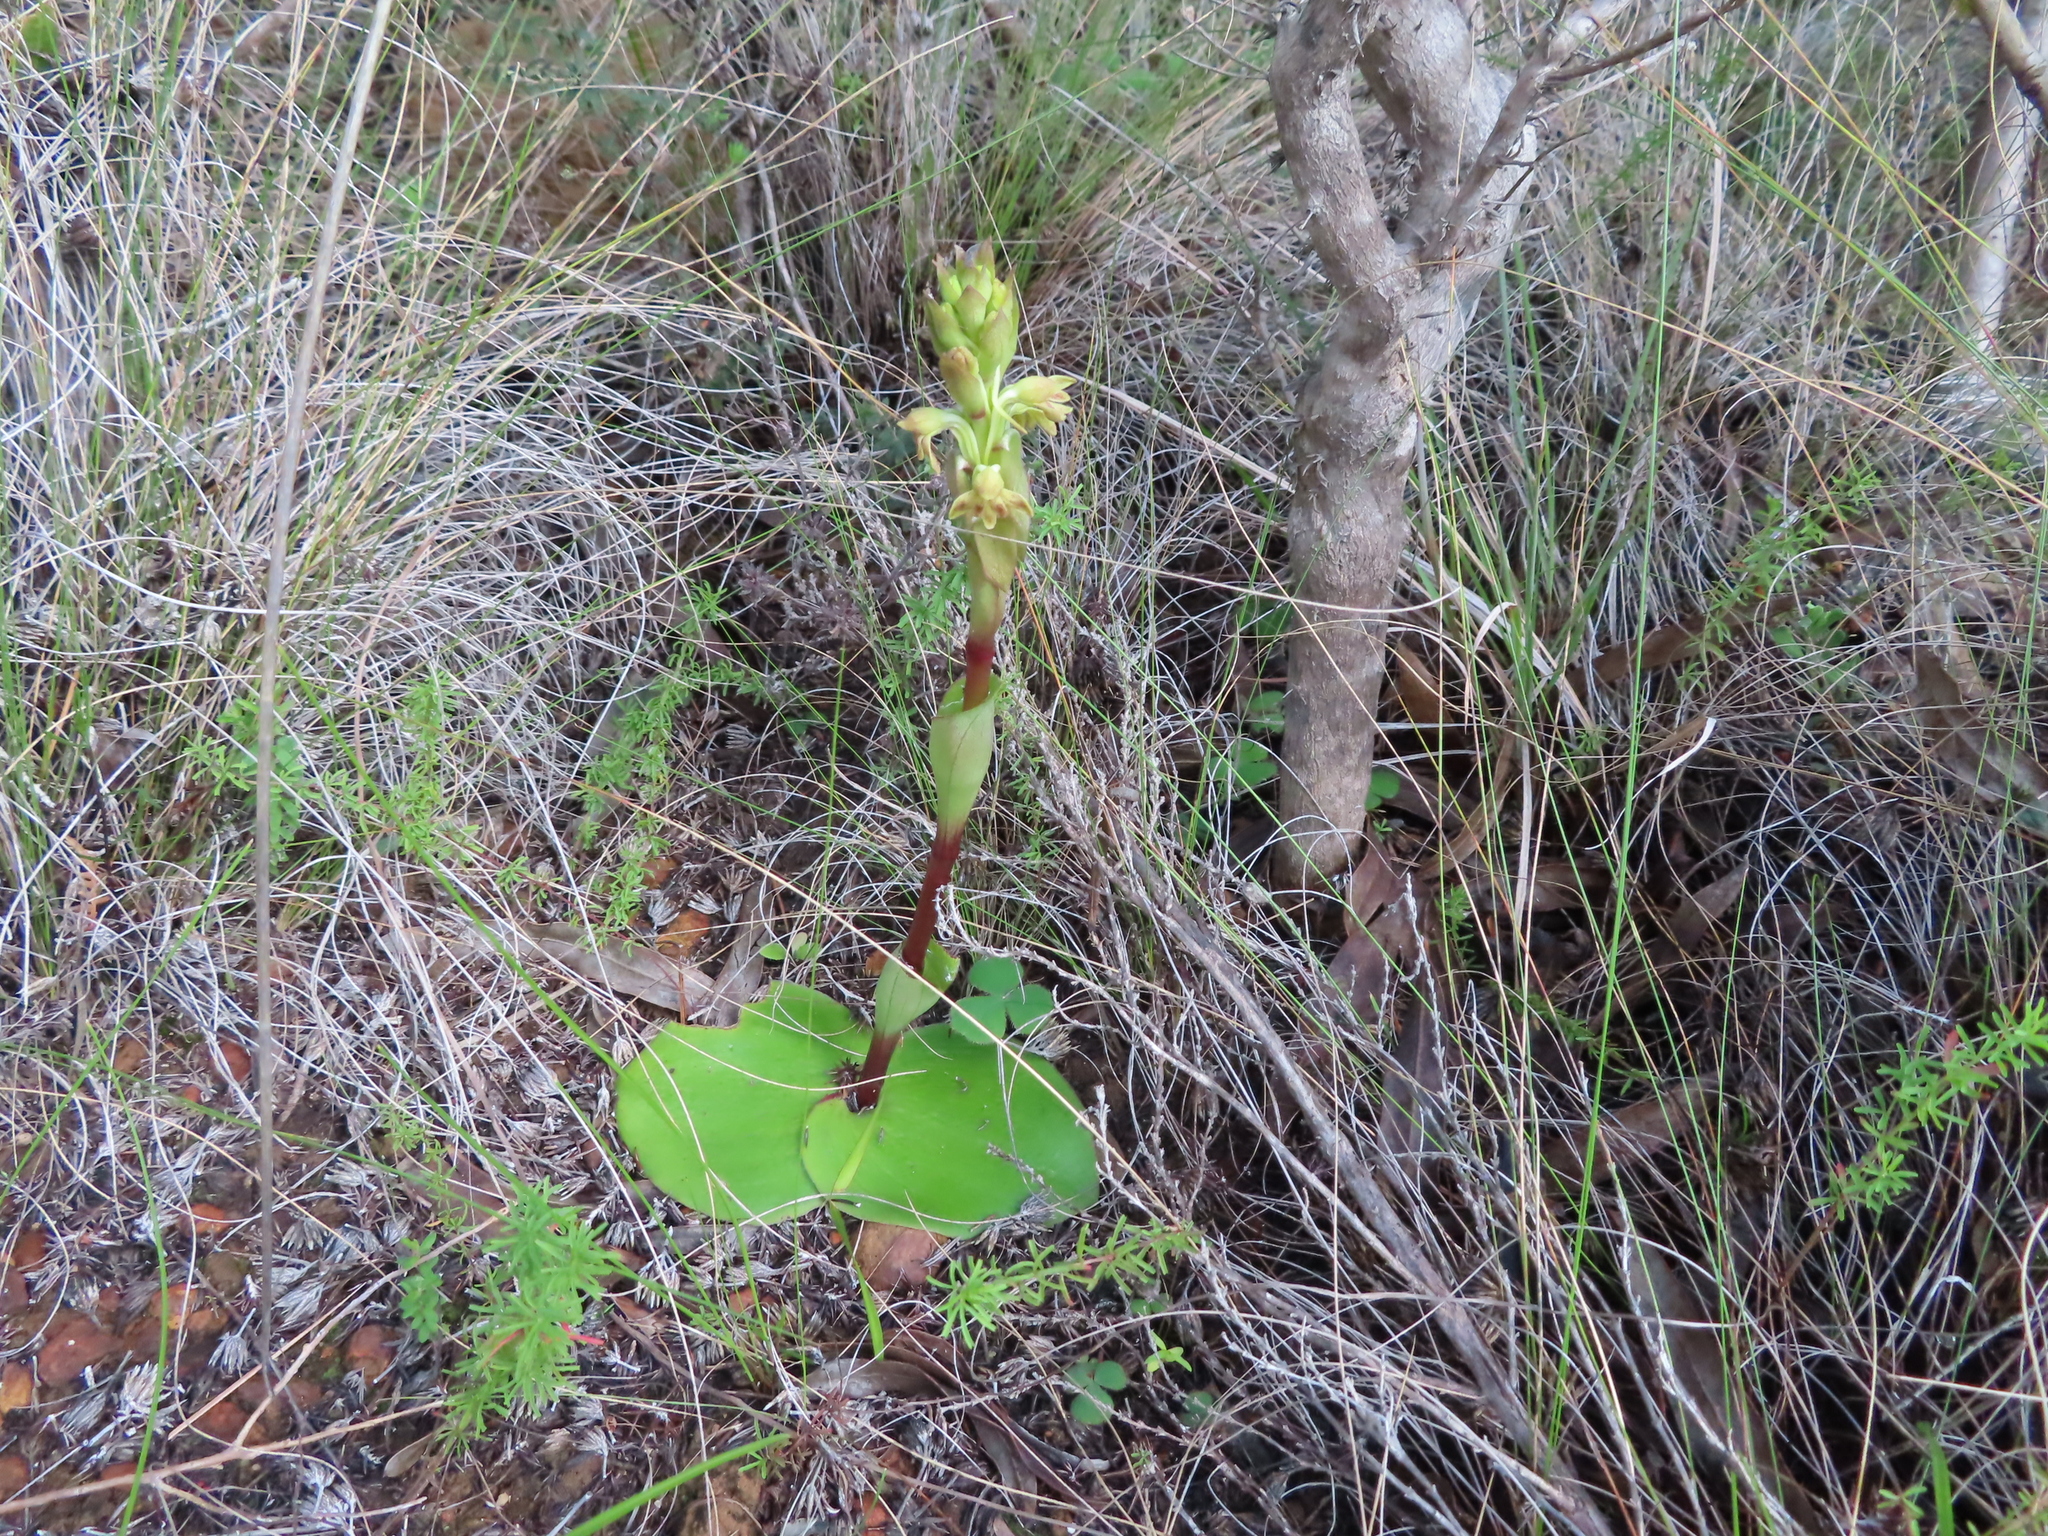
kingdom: Plantae
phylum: Tracheophyta
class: Liliopsida
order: Asparagales
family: Orchidaceae
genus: Satyrium
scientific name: Satyrium bicorne
